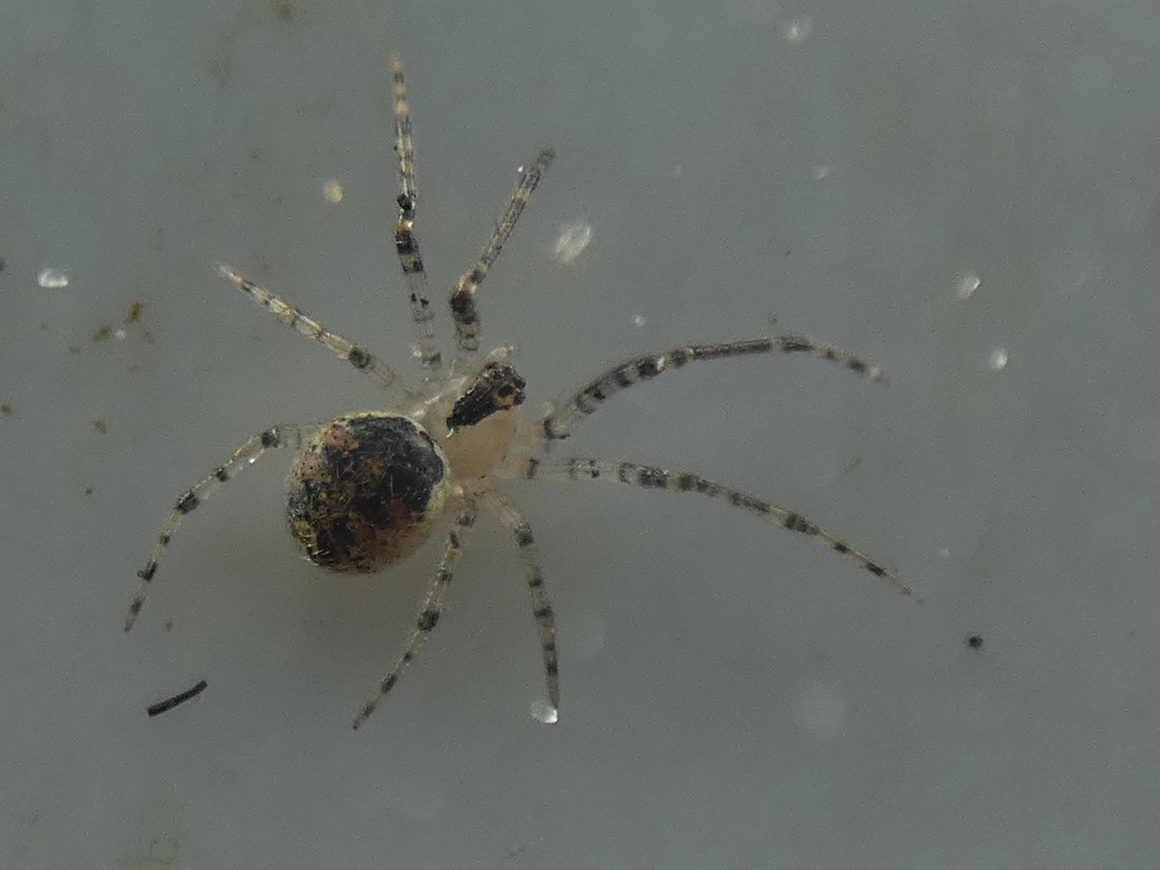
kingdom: Animalia
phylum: Arthropoda
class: Arachnida
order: Araneae
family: Theridiidae
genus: Platnickina
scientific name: Platnickina tincta
